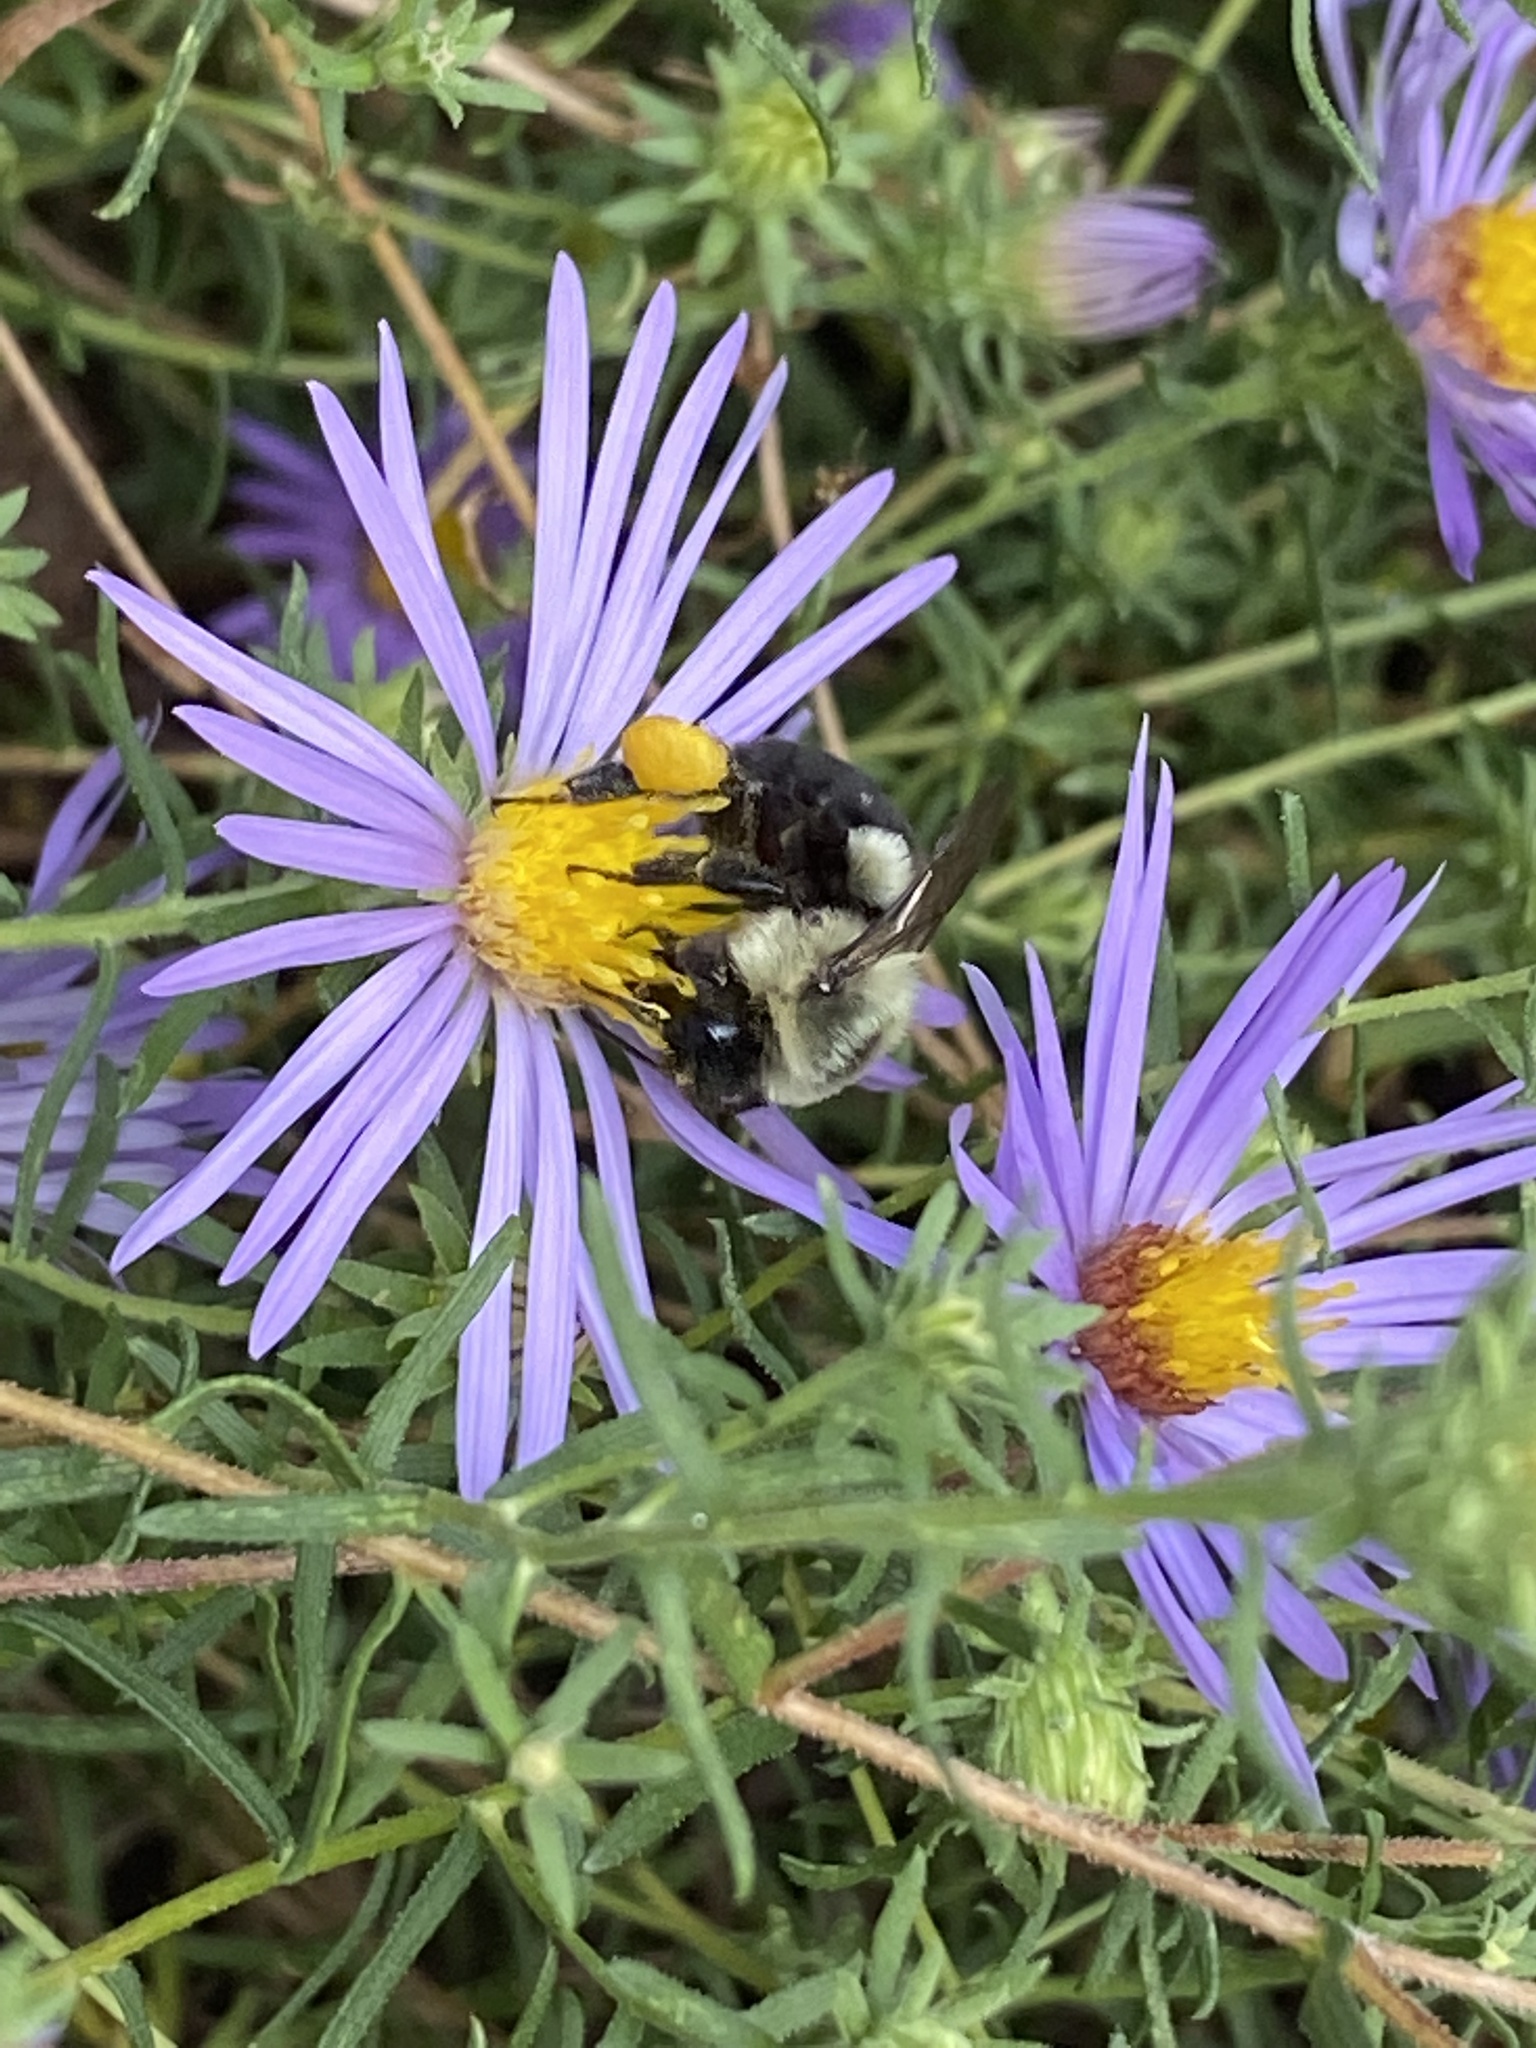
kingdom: Animalia
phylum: Arthropoda
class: Insecta
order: Hymenoptera
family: Apidae
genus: Bombus
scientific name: Bombus impatiens
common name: Common eastern bumble bee
